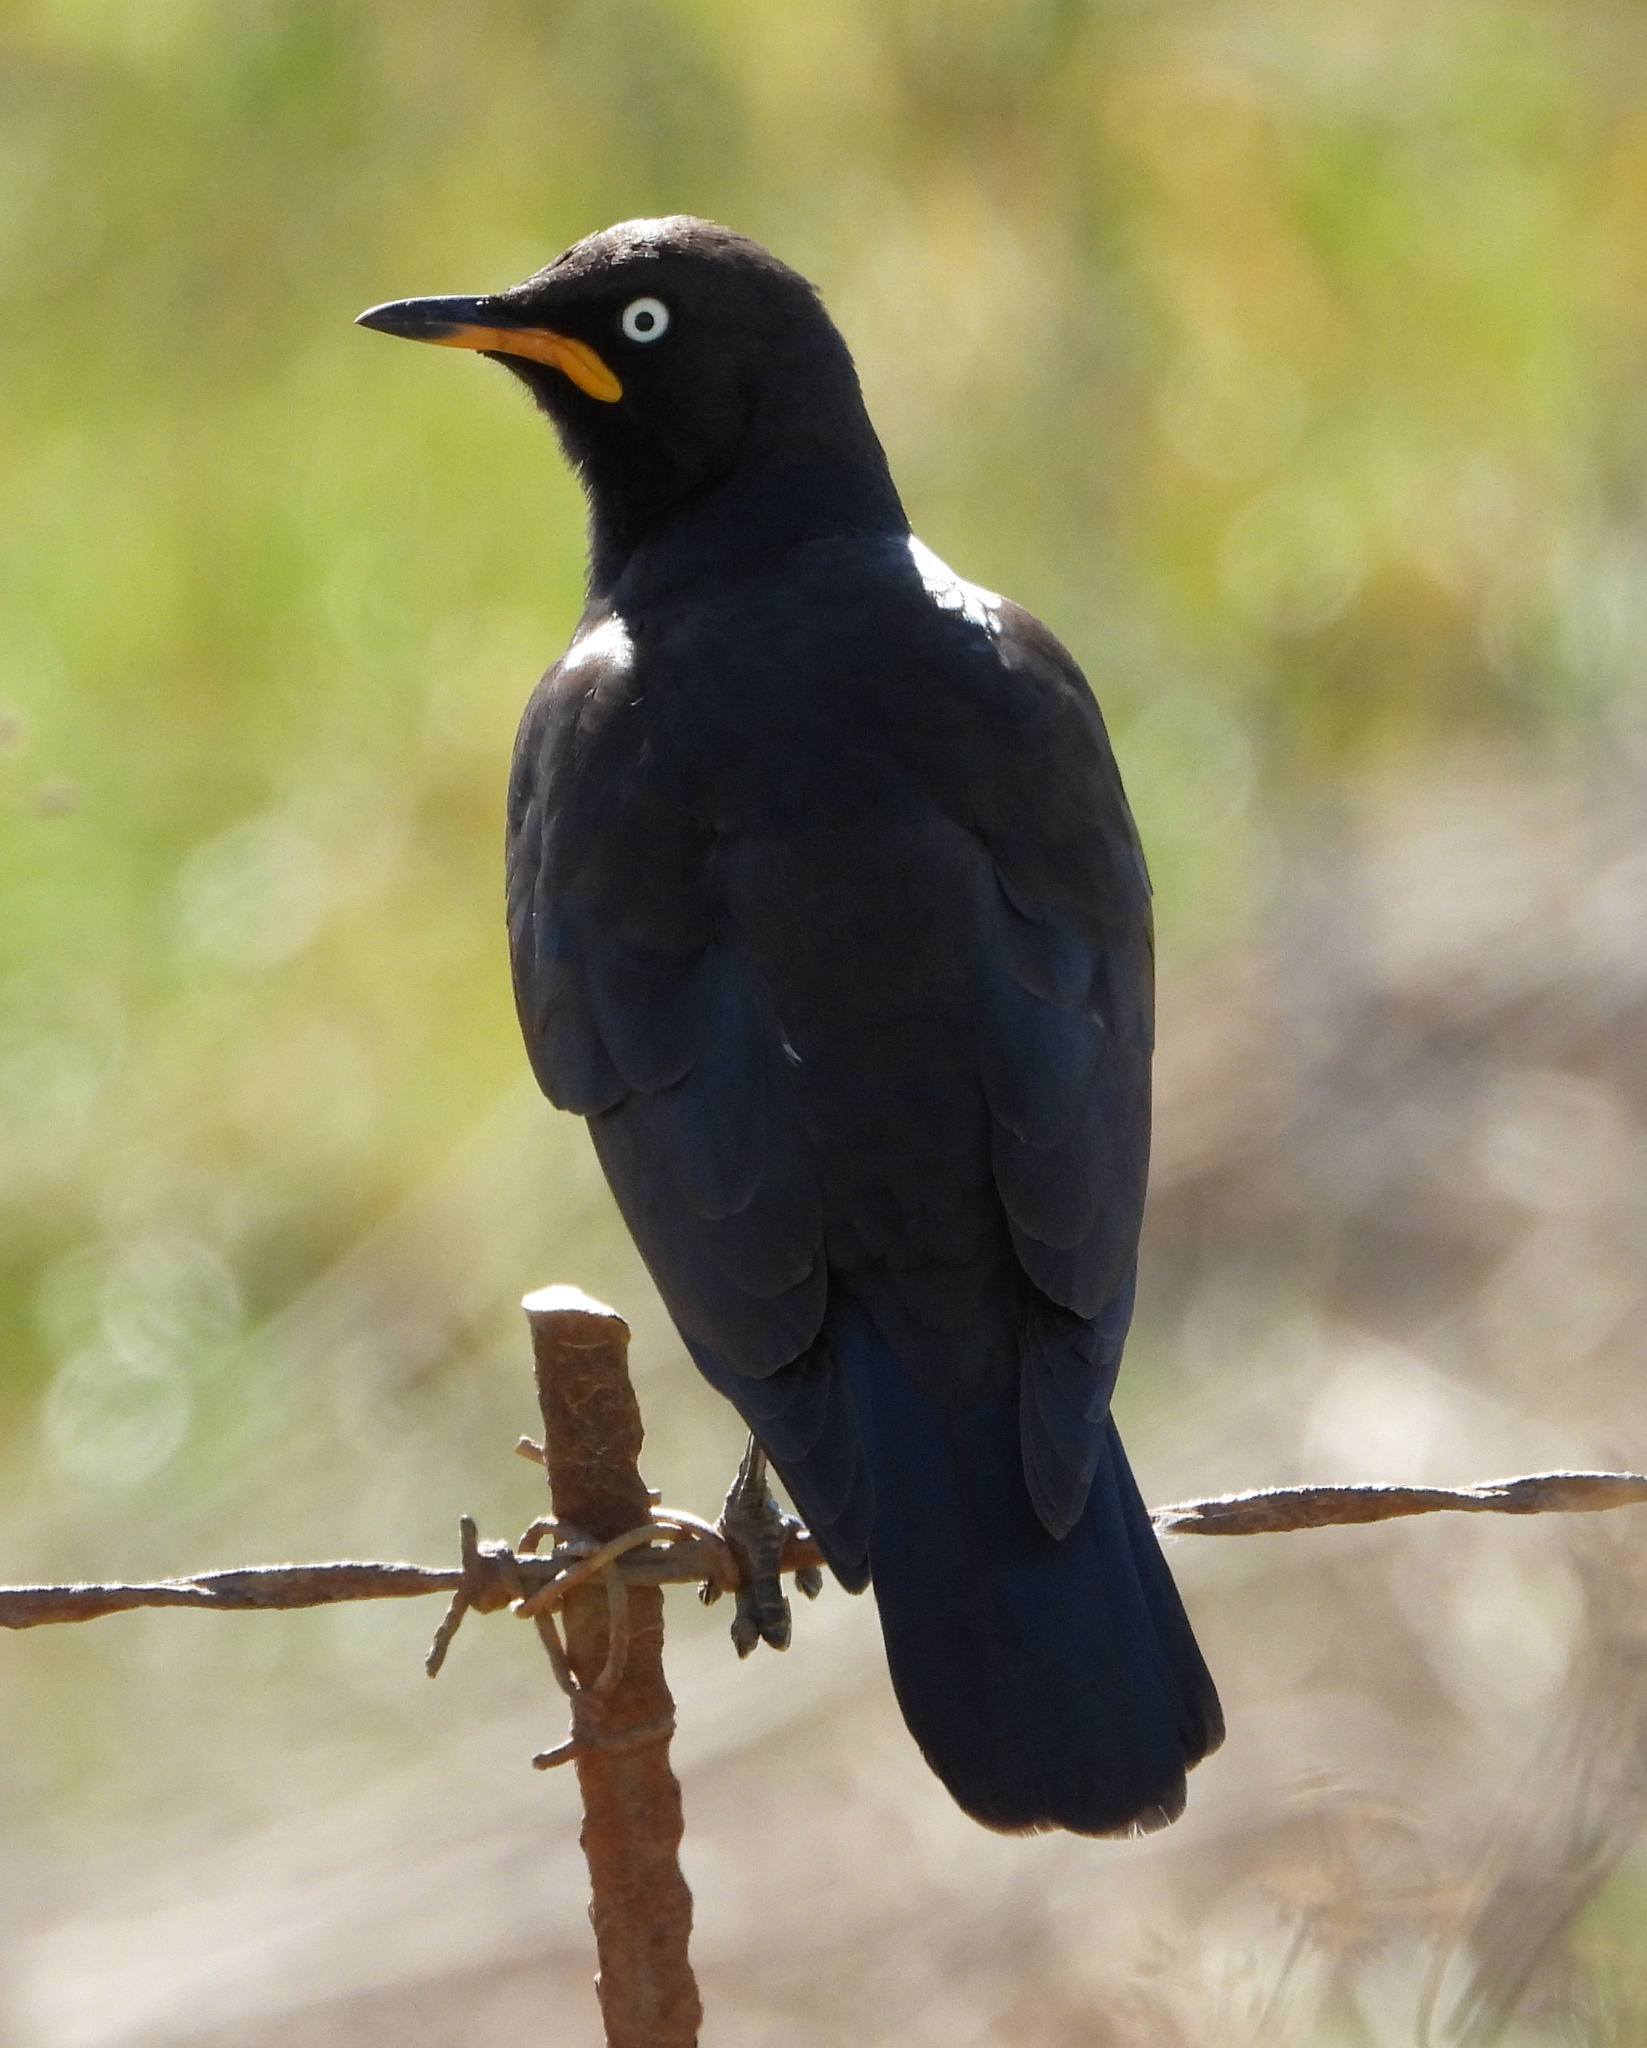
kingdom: Animalia
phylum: Chordata
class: Aves
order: Passeriformes
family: Sturnidae
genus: Lamprotornis
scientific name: Lamprotornis bicolor
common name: Pied starling
